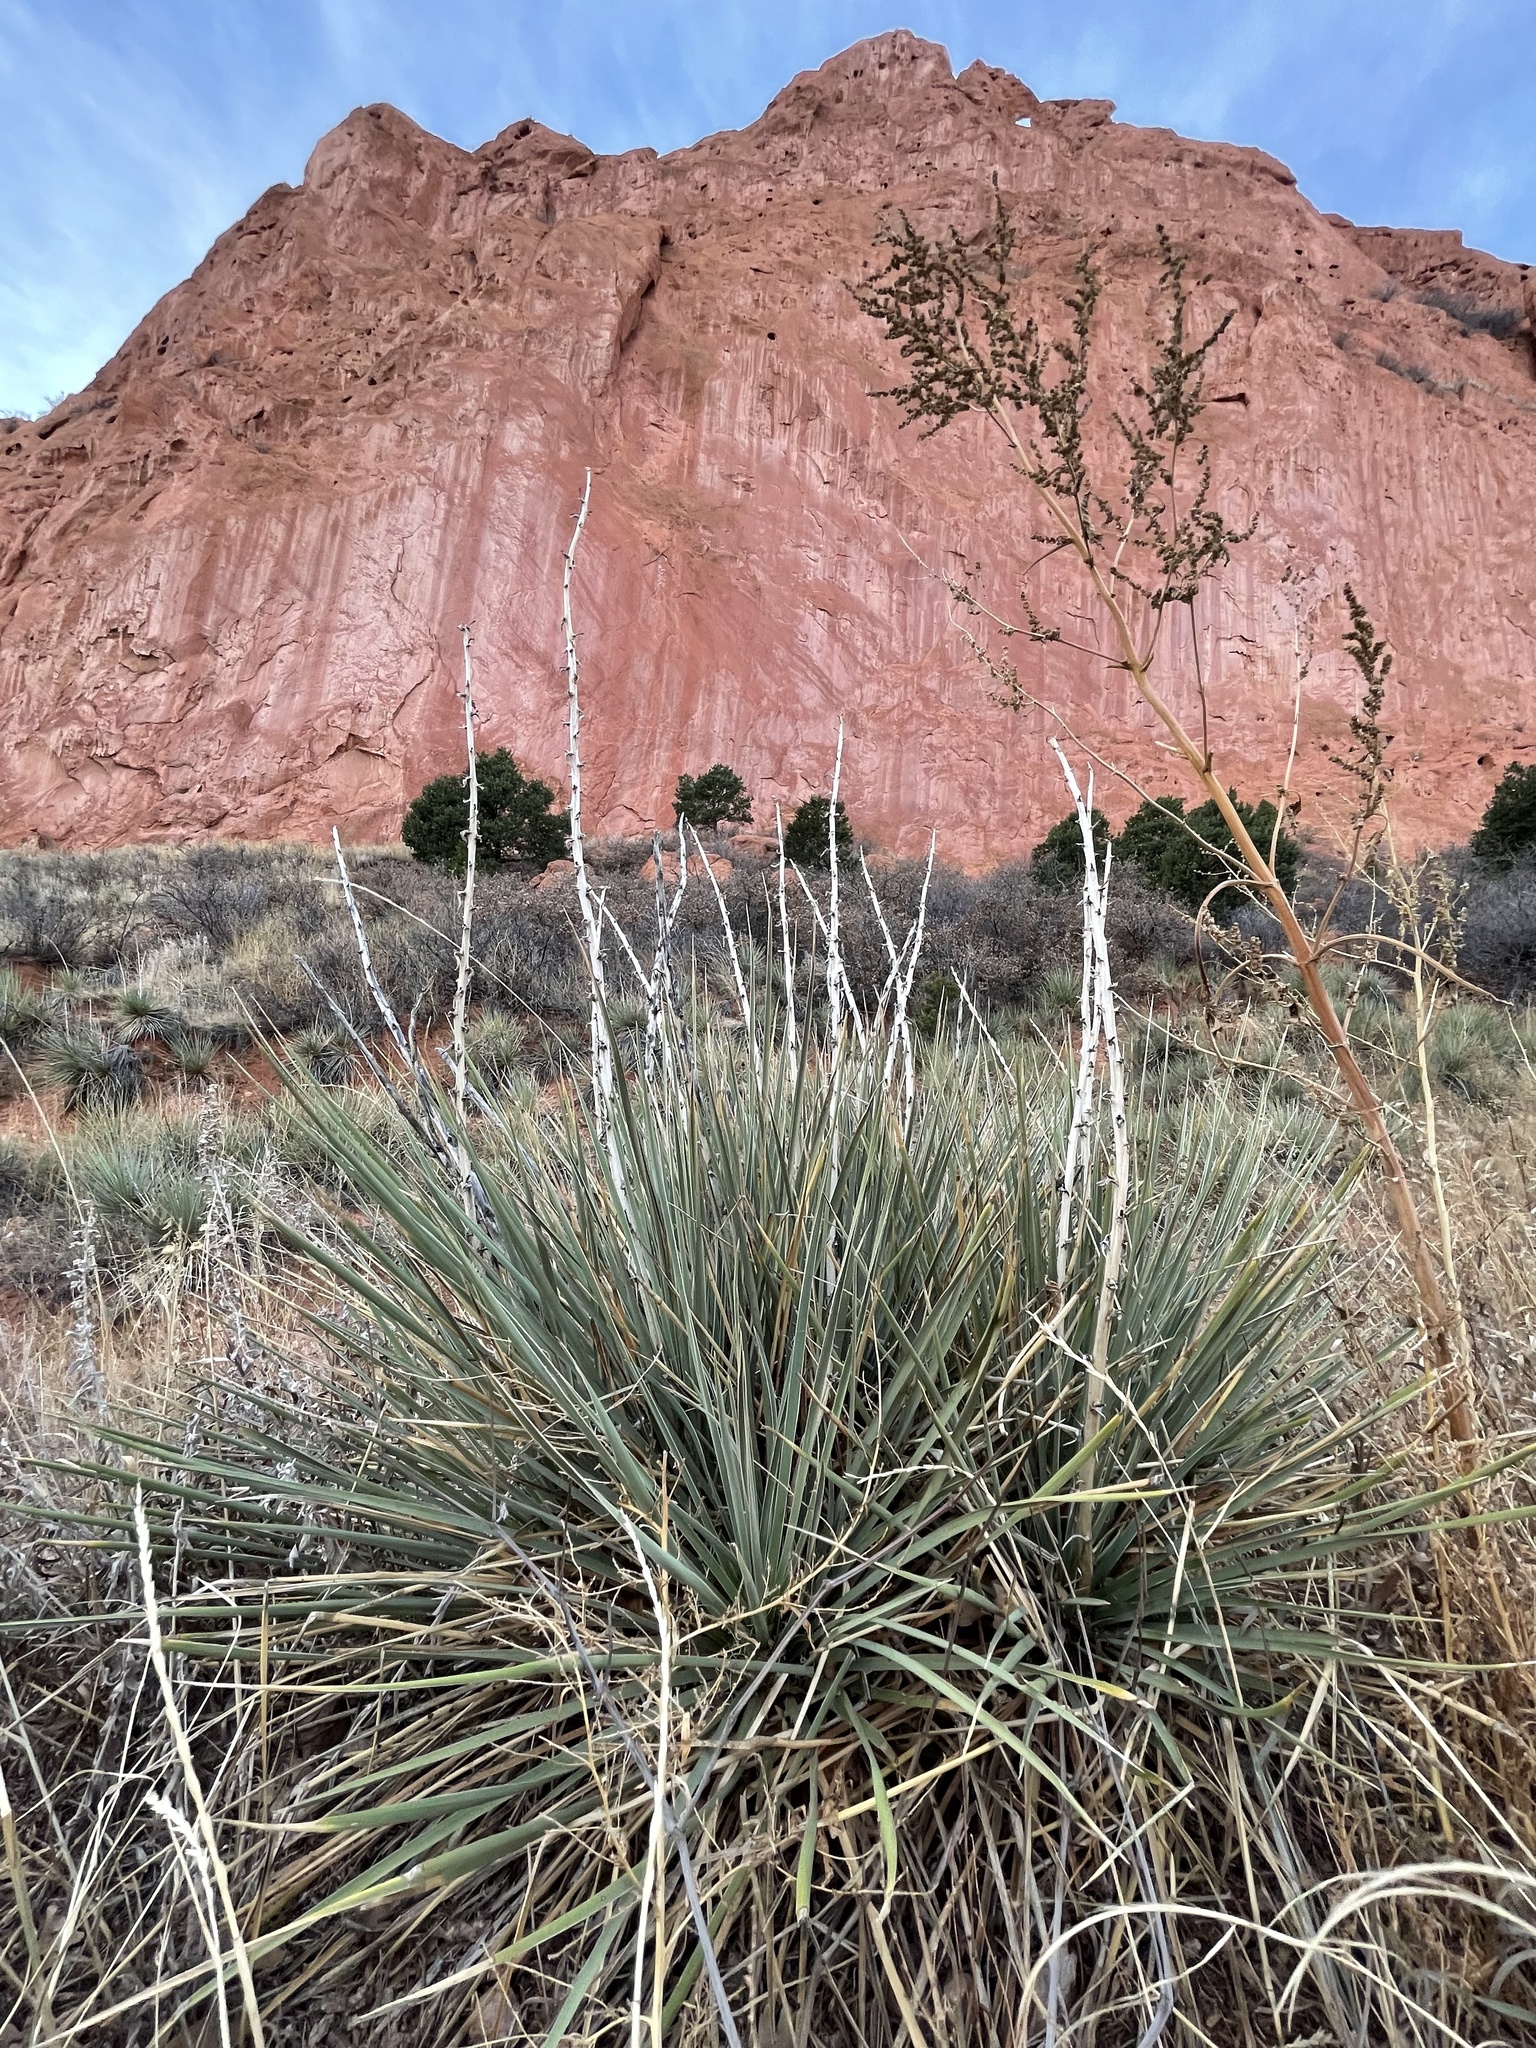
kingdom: Plantae
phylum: Tracheophyta
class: Liliopsida
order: Asparagales
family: Asparagaceae
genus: Yucca
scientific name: Yucca glauca
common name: Great plains yucca
